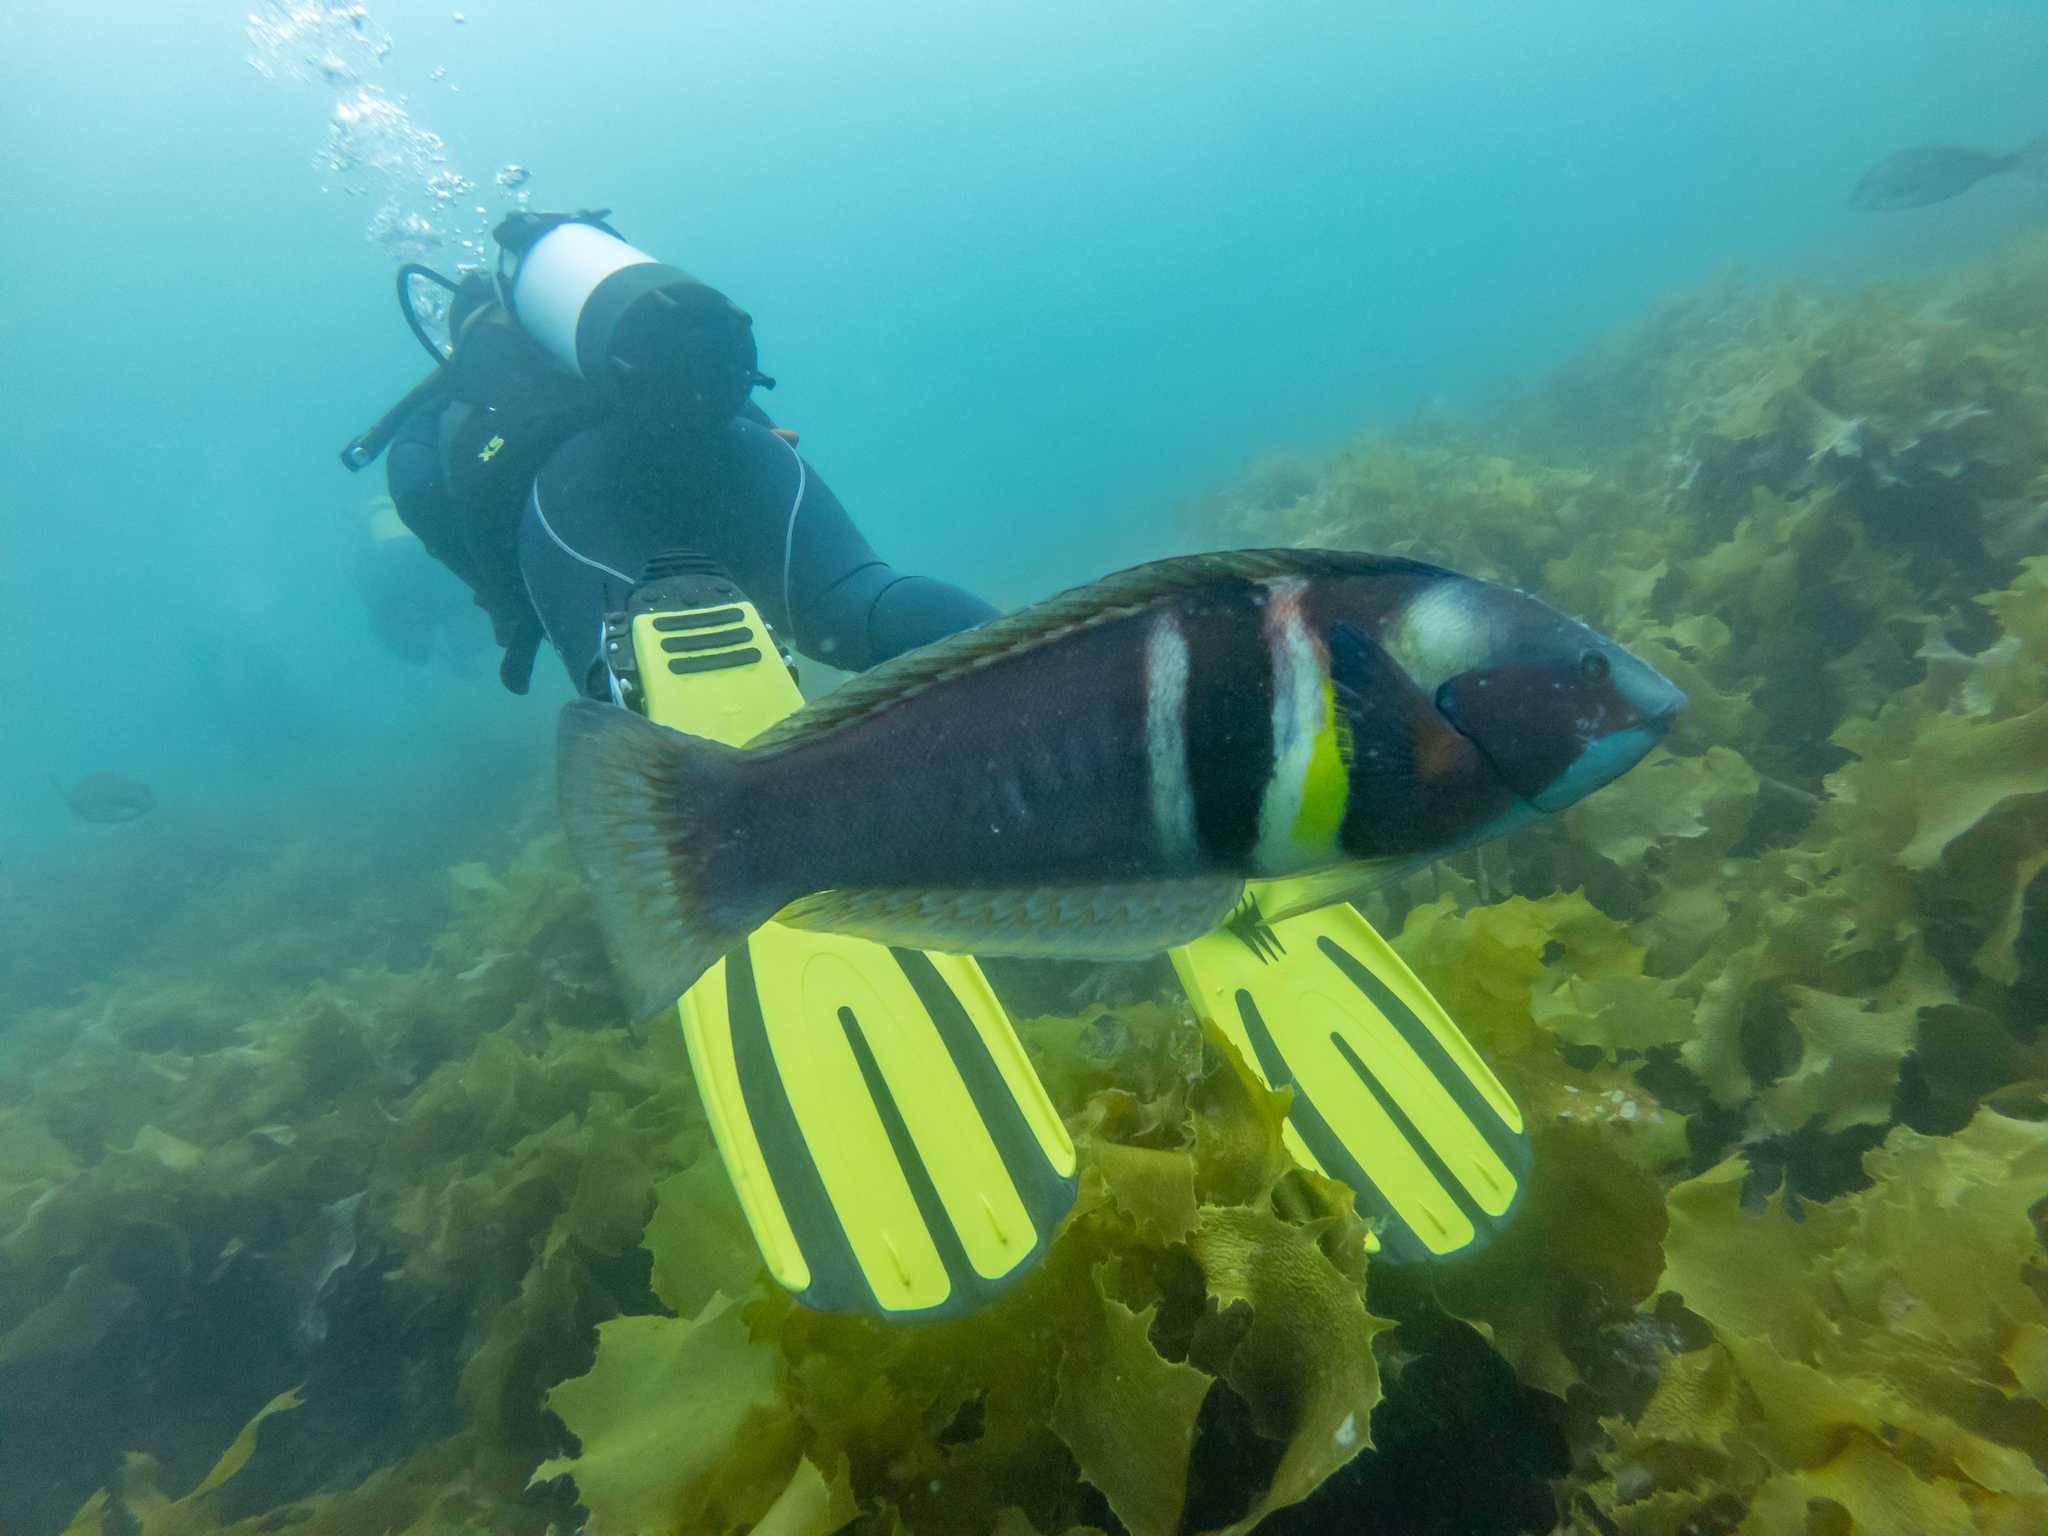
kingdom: Animalia
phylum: Chordata
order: Perciformes
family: Labridae
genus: Coris
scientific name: Coris sandeyeri
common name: Sandager's wrasse
